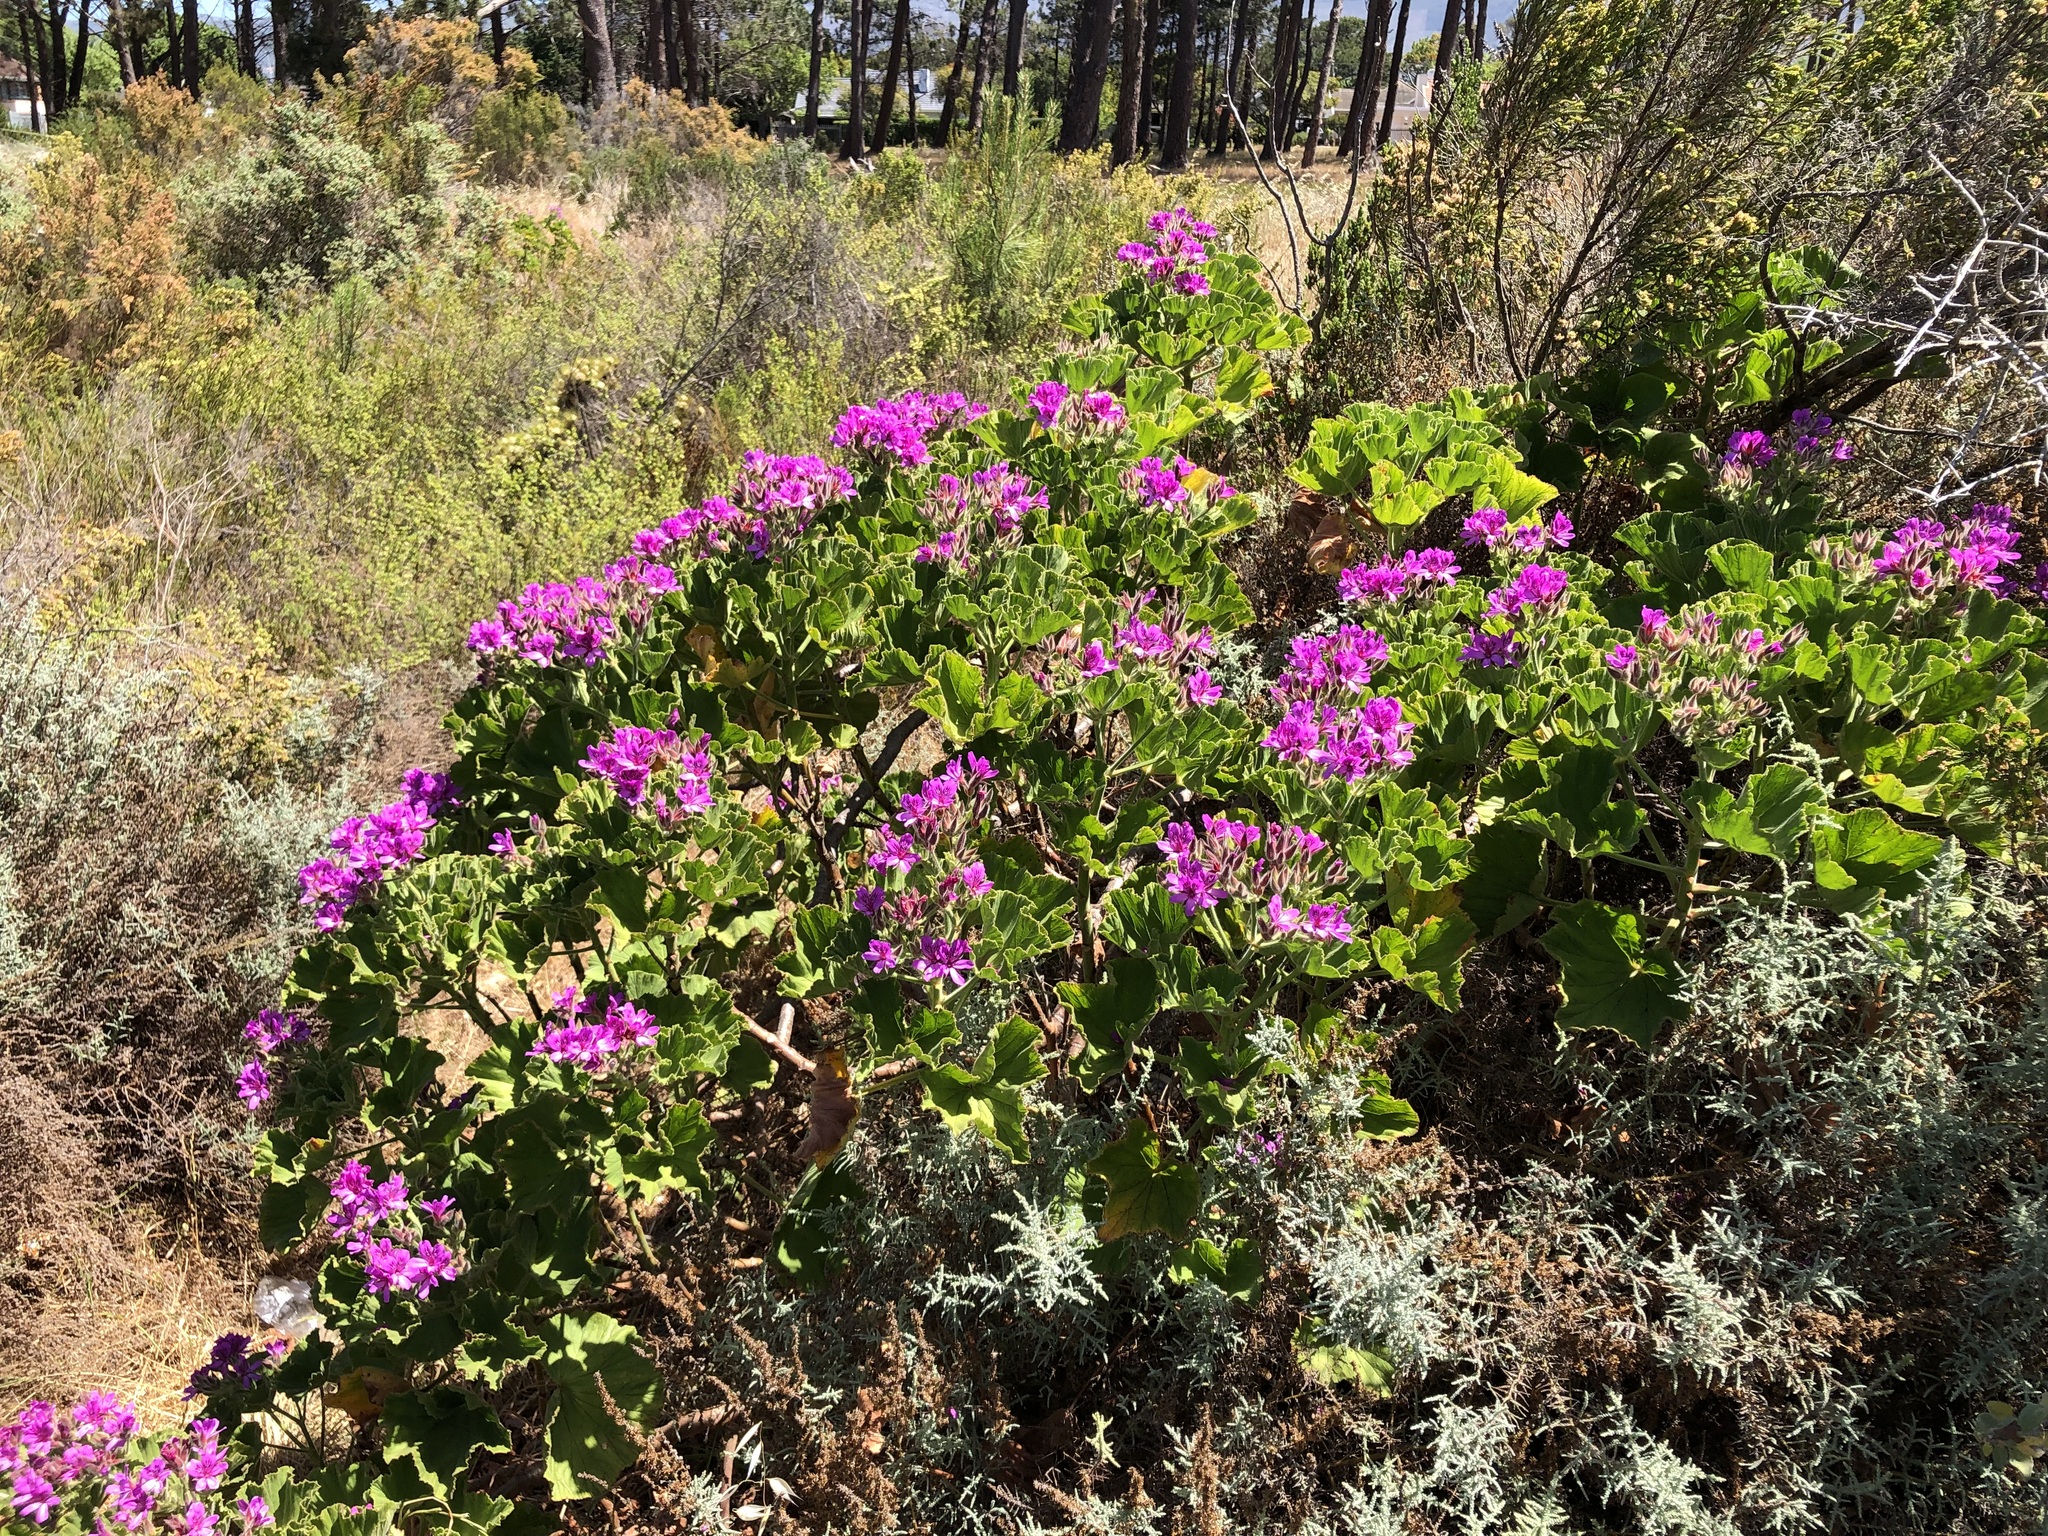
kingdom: Plantae
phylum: Tracheophyta
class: Magnoliopsida
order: Geraniales
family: Geraniaceae
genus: Pelargonium
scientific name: Pelargonium cucullatum
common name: Tree pelargonium
